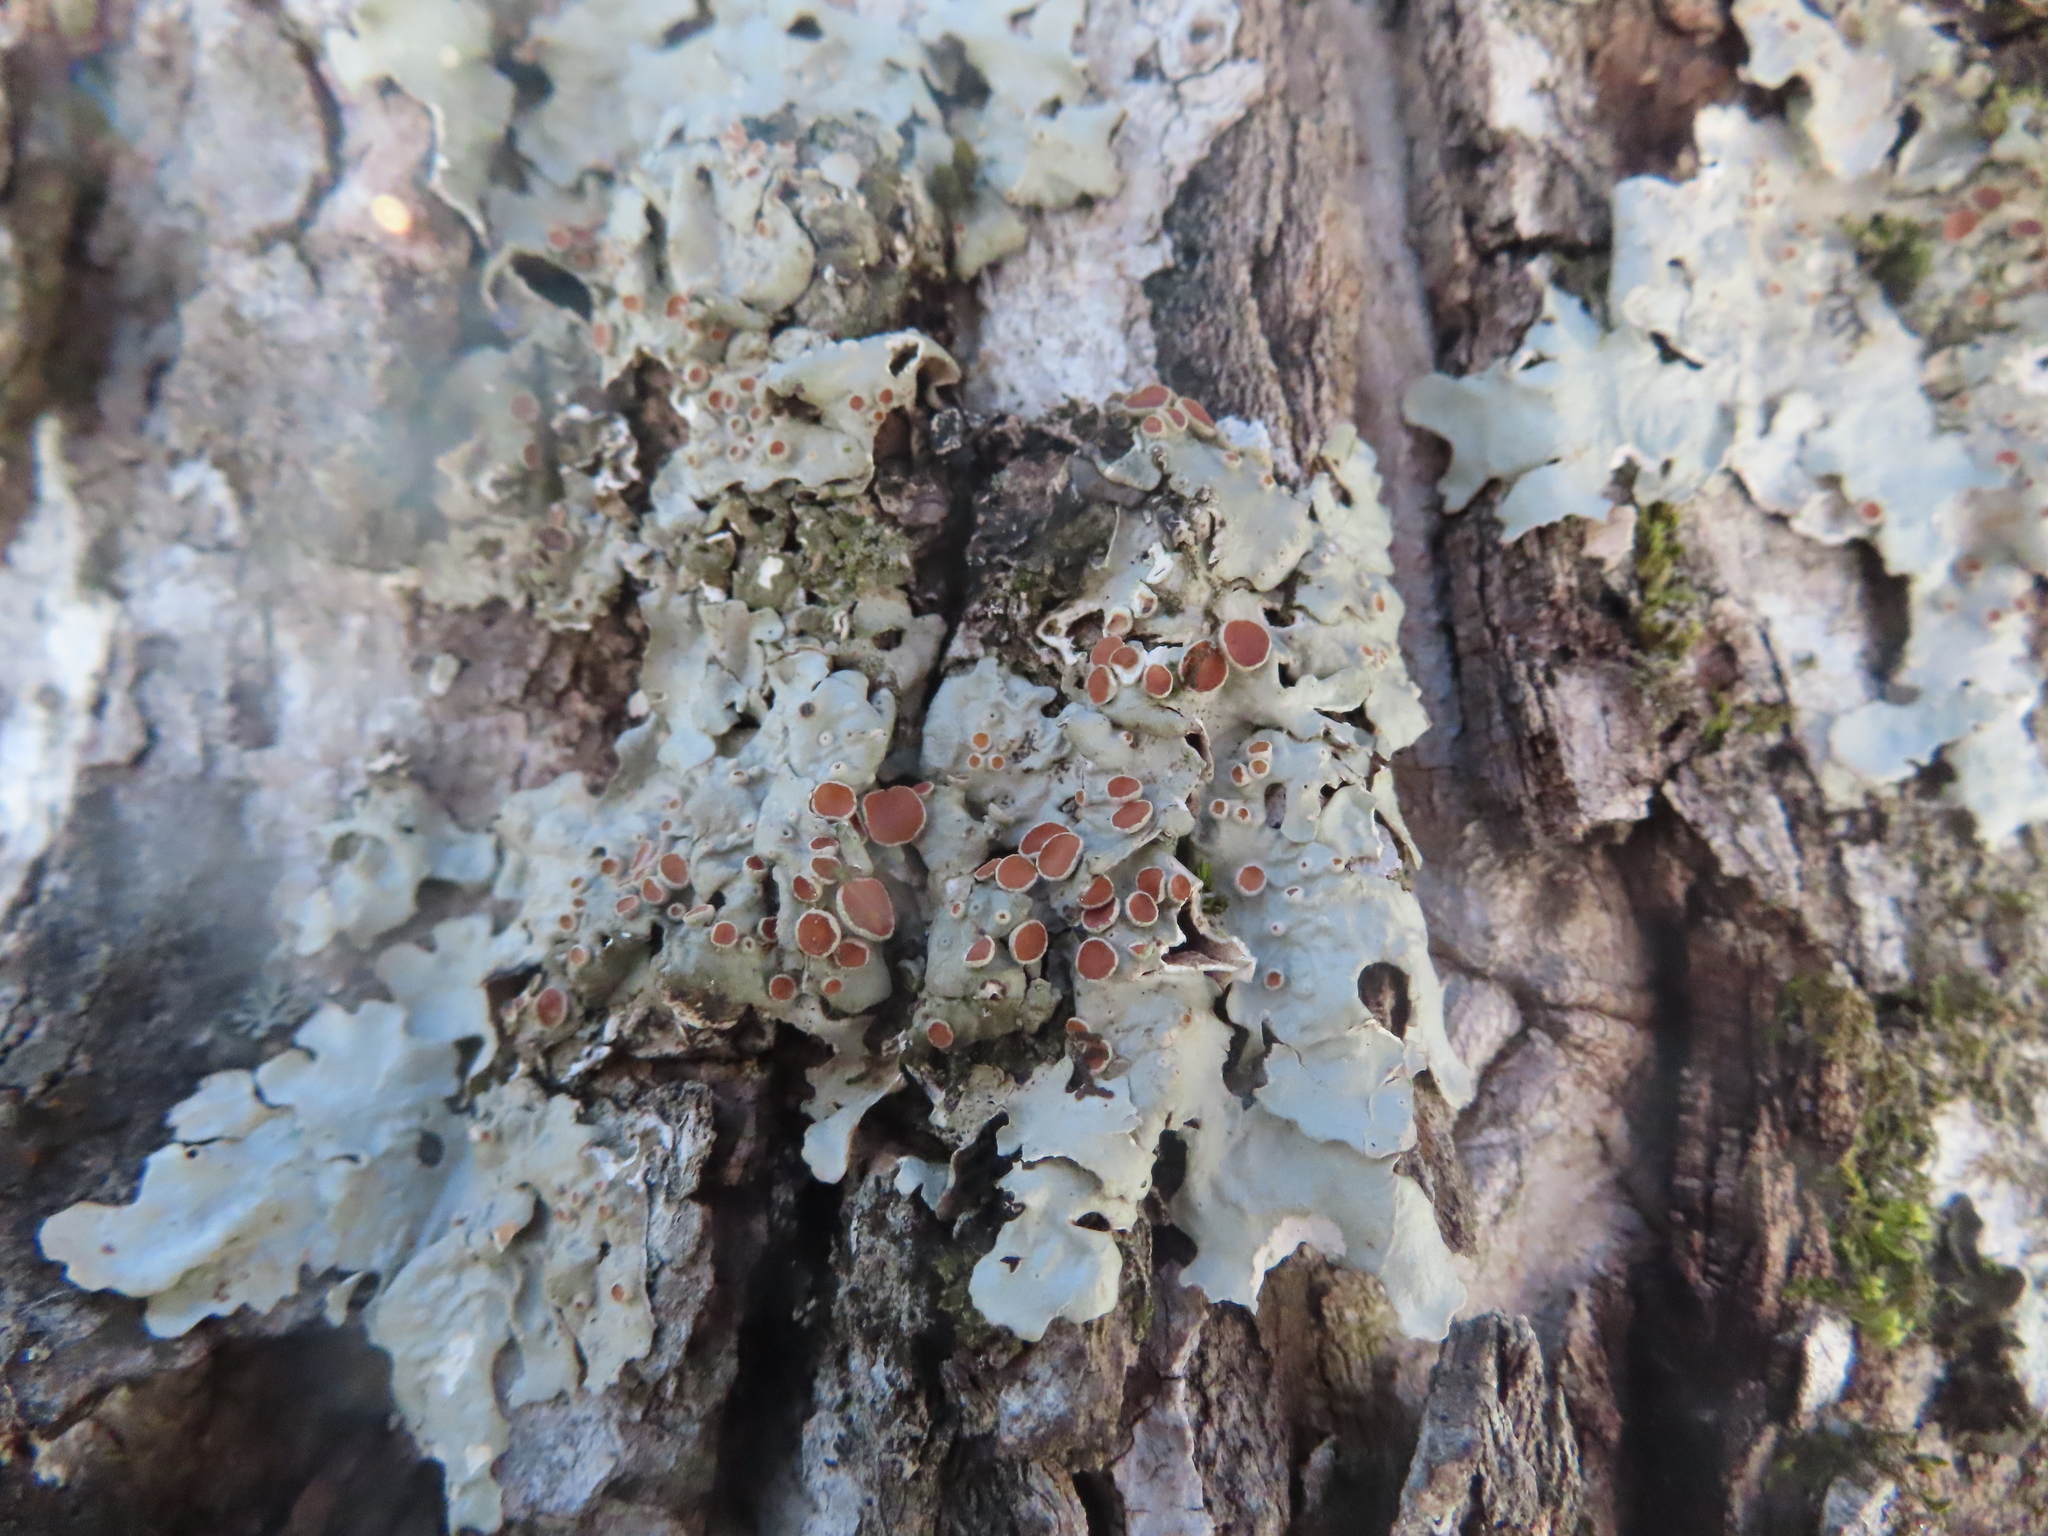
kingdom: Fungi
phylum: Ascomycota
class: Lecanoromycetes
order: Peltigerales
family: Lobariaceae
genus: Ricasolia
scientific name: Ricasolia quercizans
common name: Smooth lungwort
